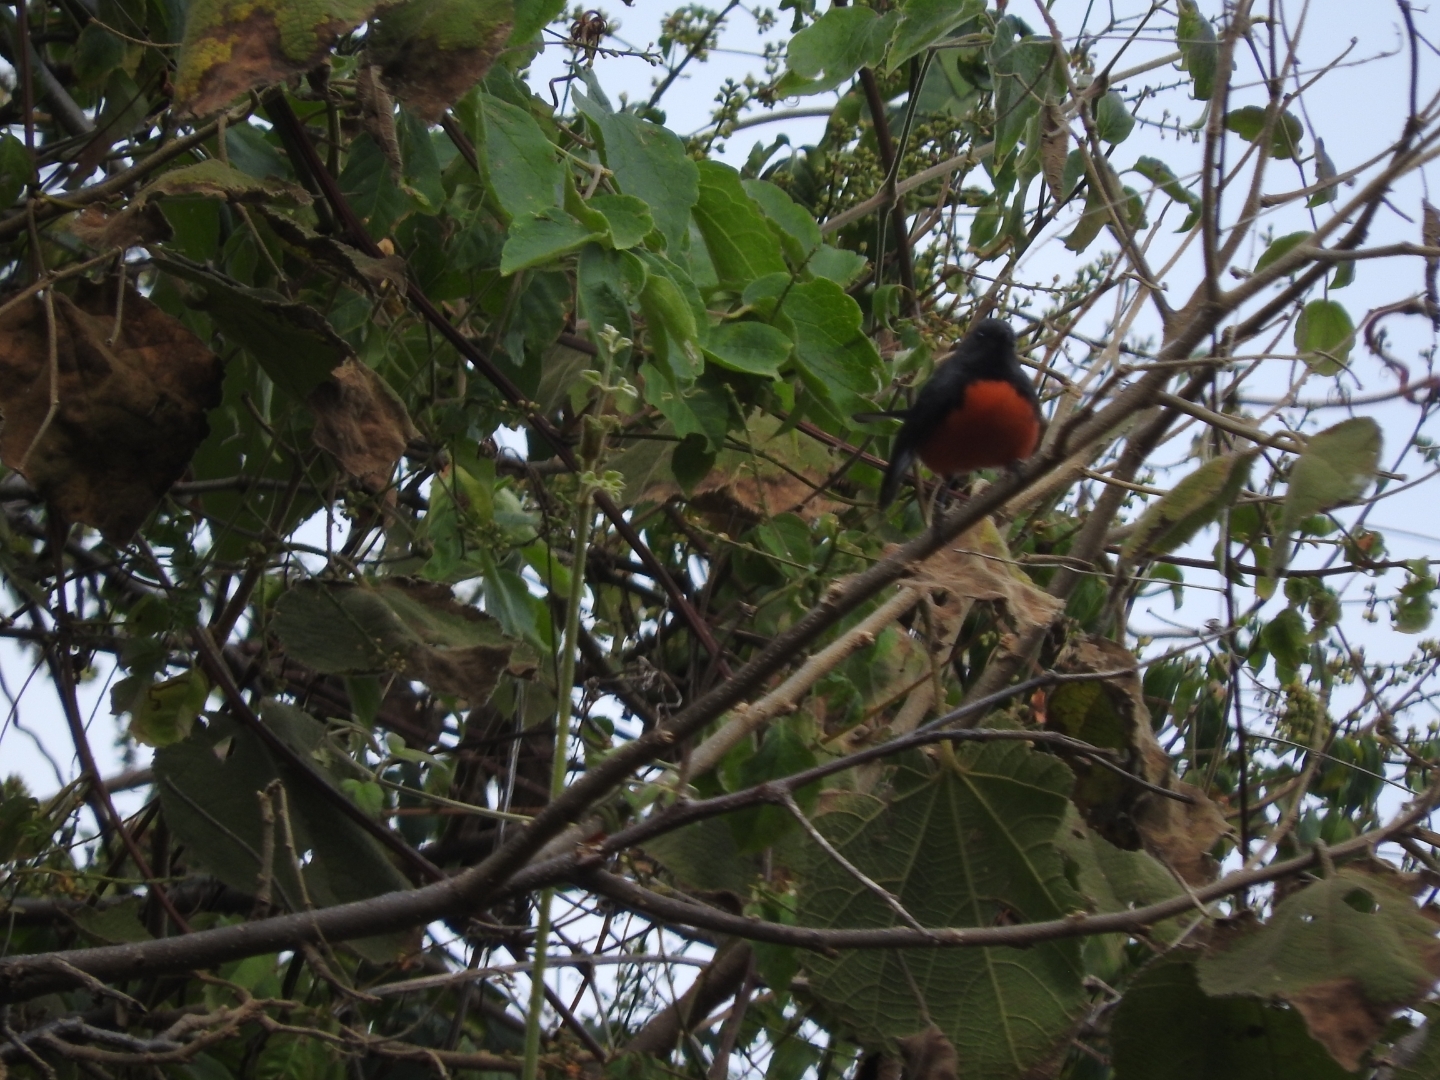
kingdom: Animalia
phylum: Chordata
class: Aves
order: Passeriformes
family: Parulidae
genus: Myioborus
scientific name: Myioborus miniatus
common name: Slate-throated redstart
